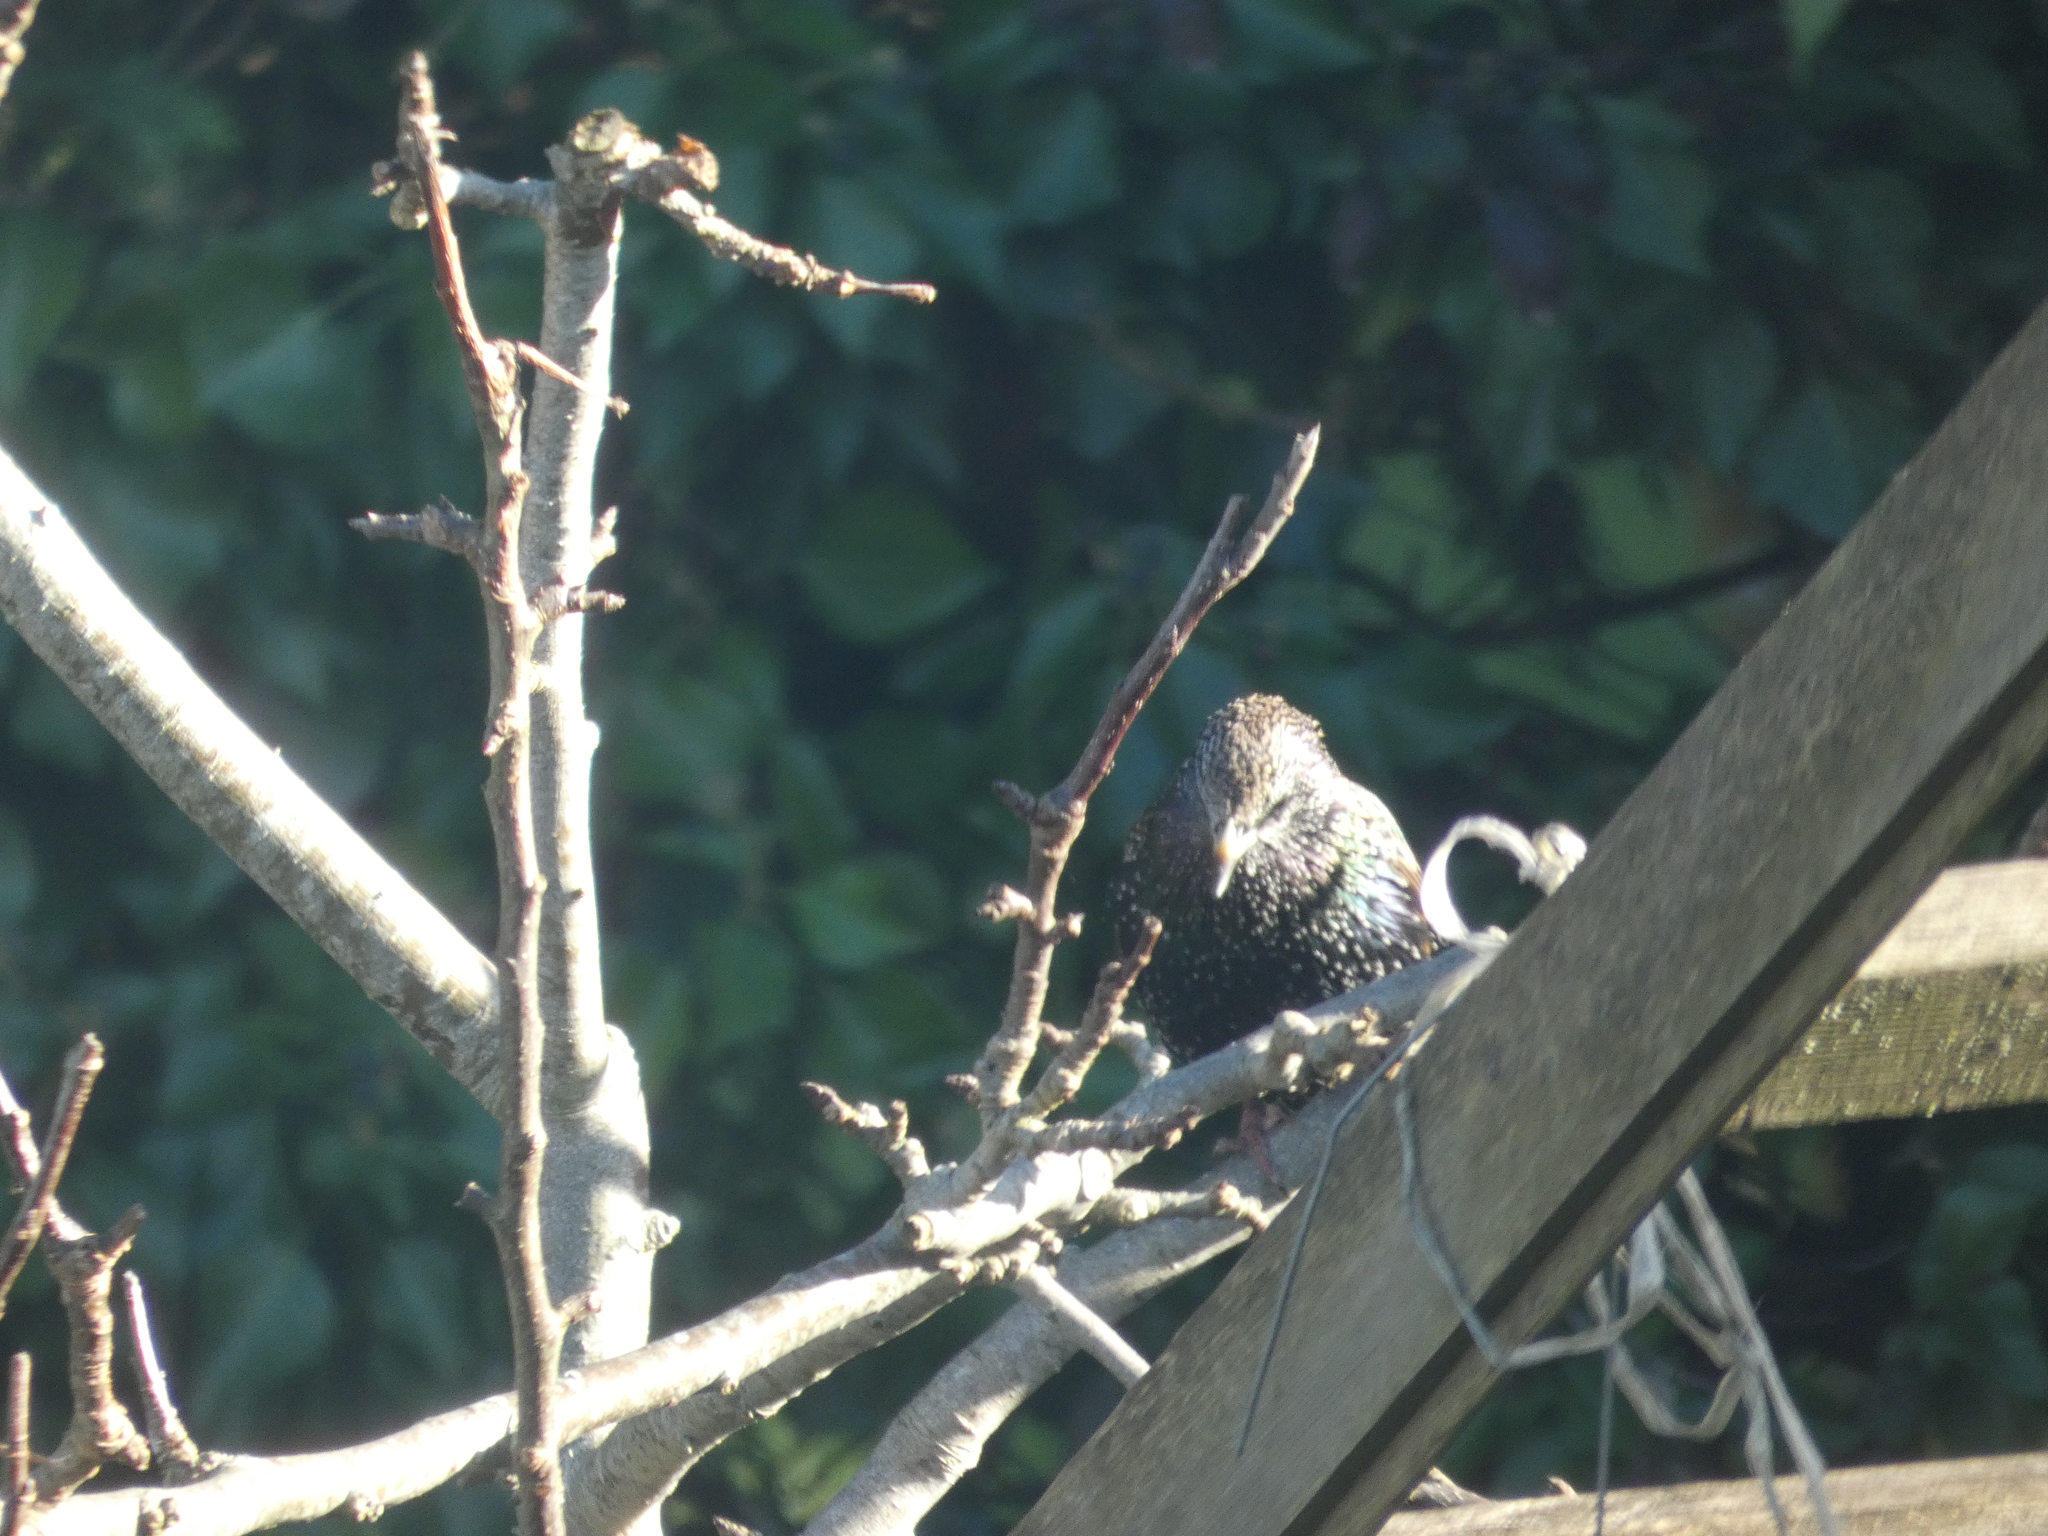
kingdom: Animalia
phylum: Chordata
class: Aves
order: Passeriformes
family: Sturnidae
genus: Sturnus
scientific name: Sturnus vulgaris
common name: Common starling
